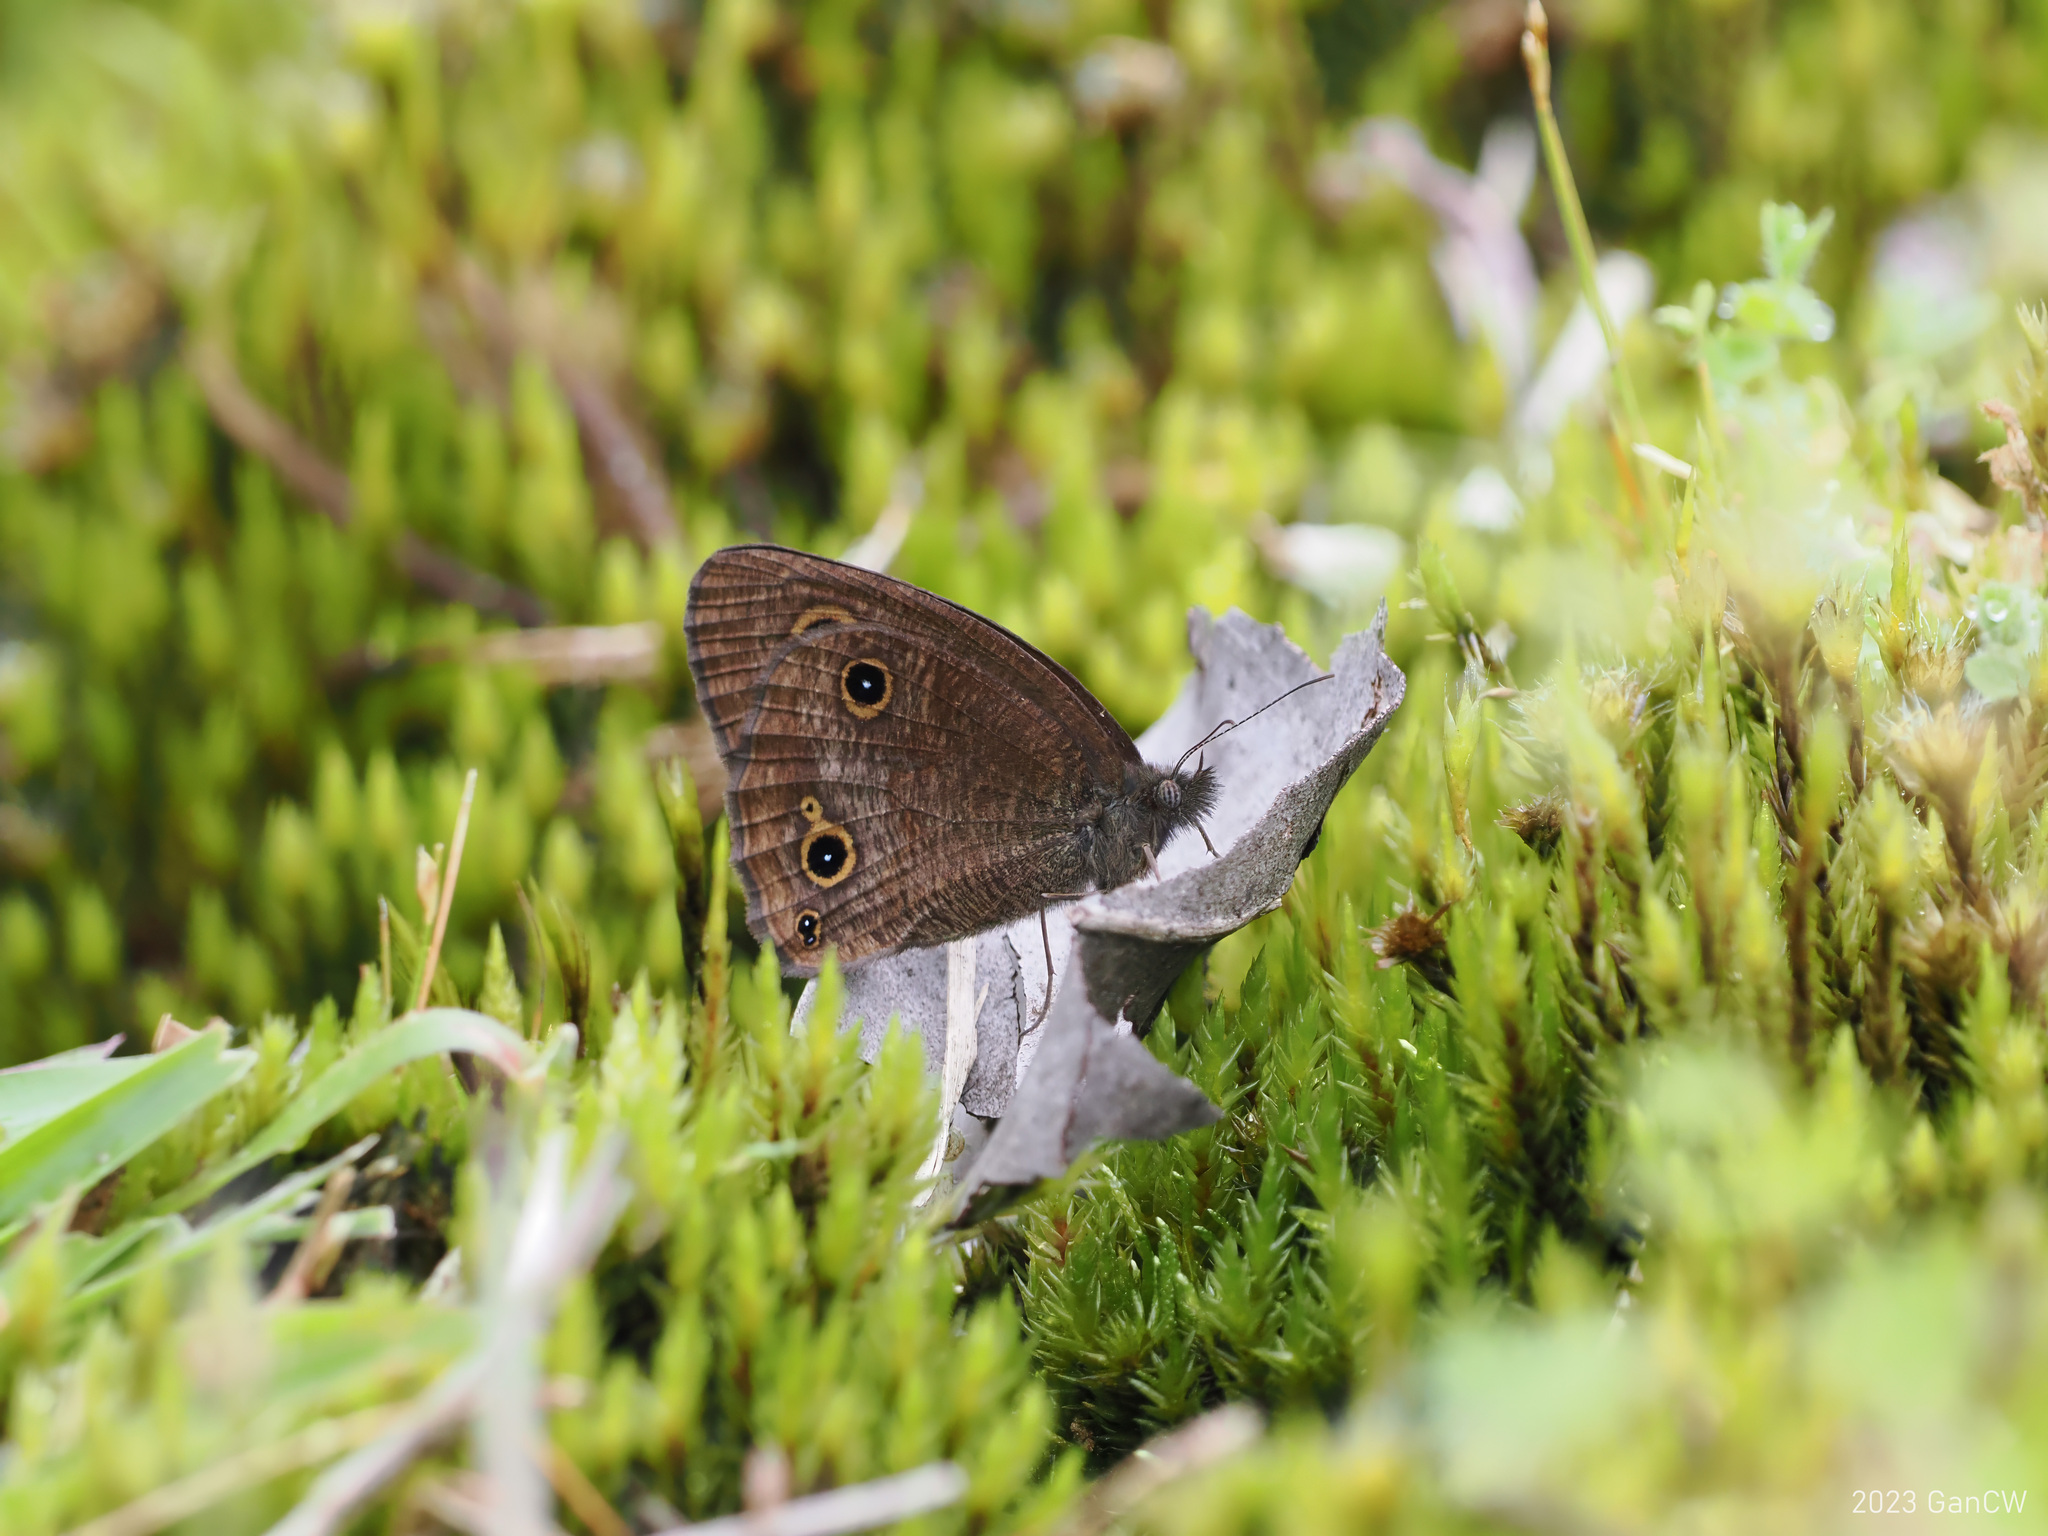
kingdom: Animalia
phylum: Arthropoda
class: Insecta
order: Lepidoptera
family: Nymphalidae
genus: Ypthima
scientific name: Ypthima ancus
